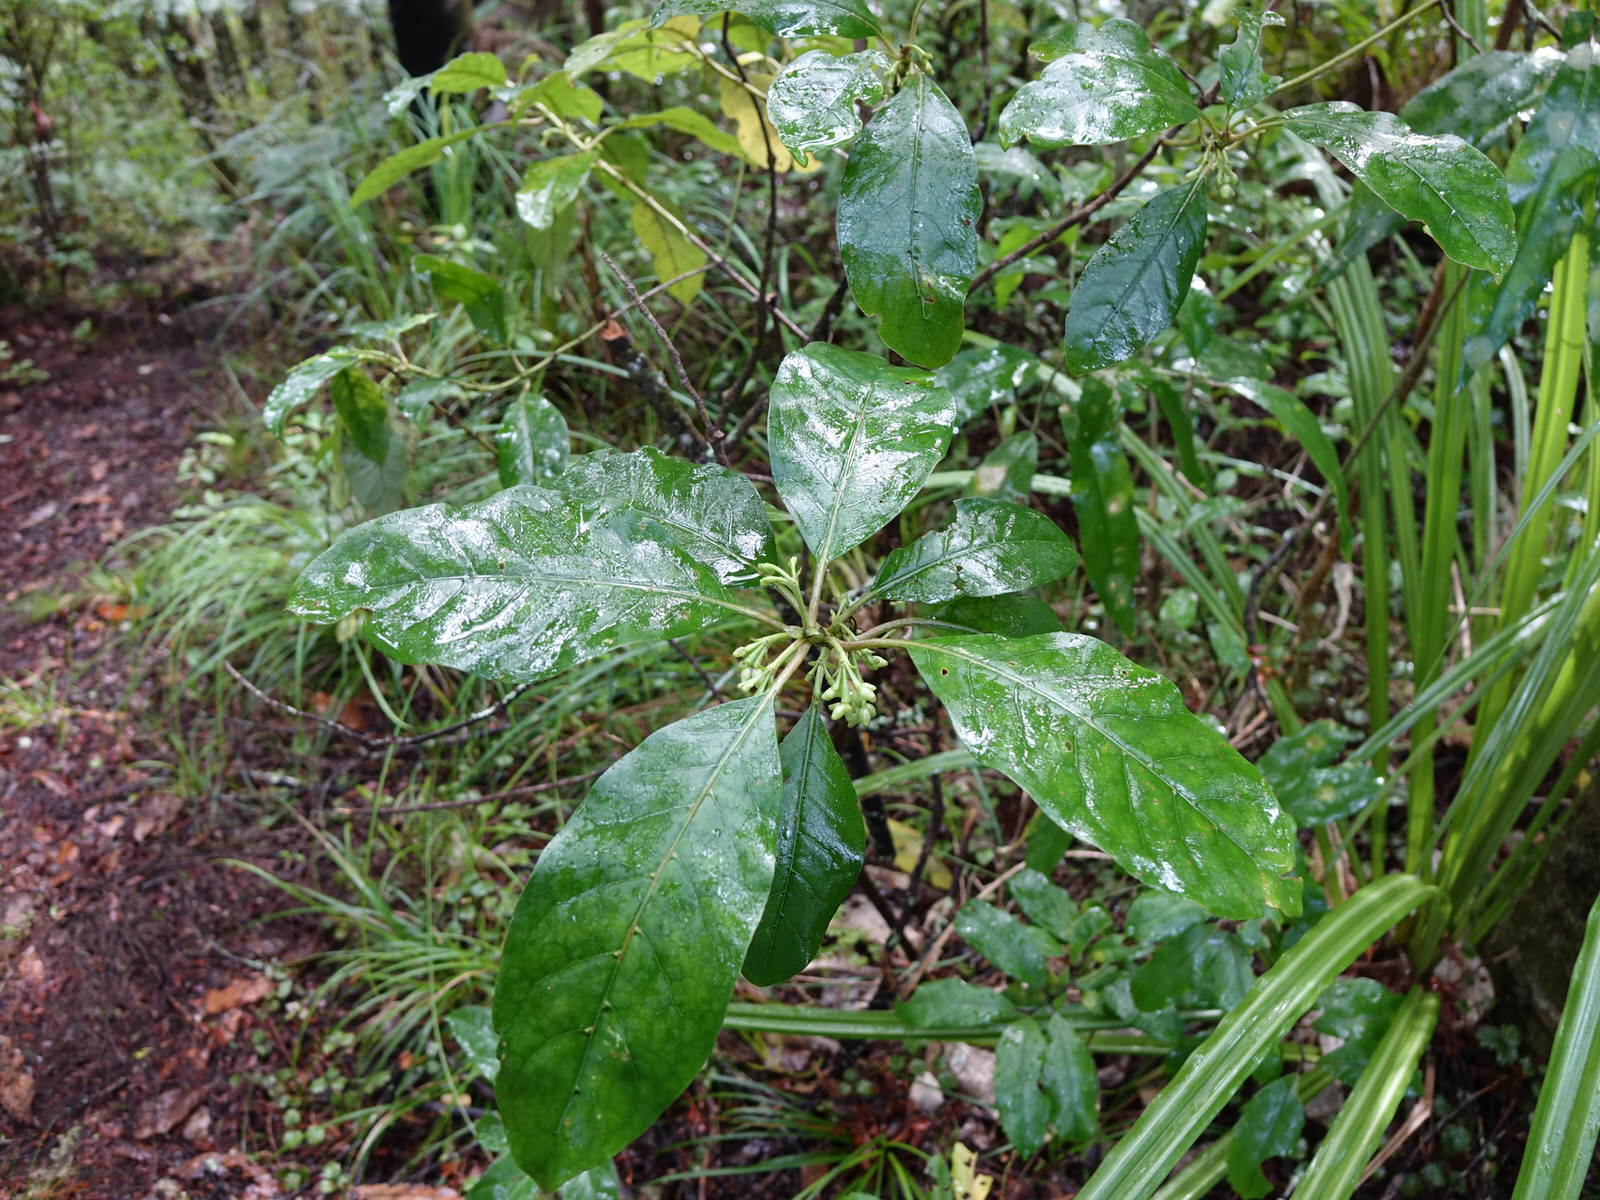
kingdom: Plantae
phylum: Tracheophyta
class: Magnoliopsida
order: Gentianales
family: Rubiaceae
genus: Coprosma
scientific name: Coprosma autumnalis
